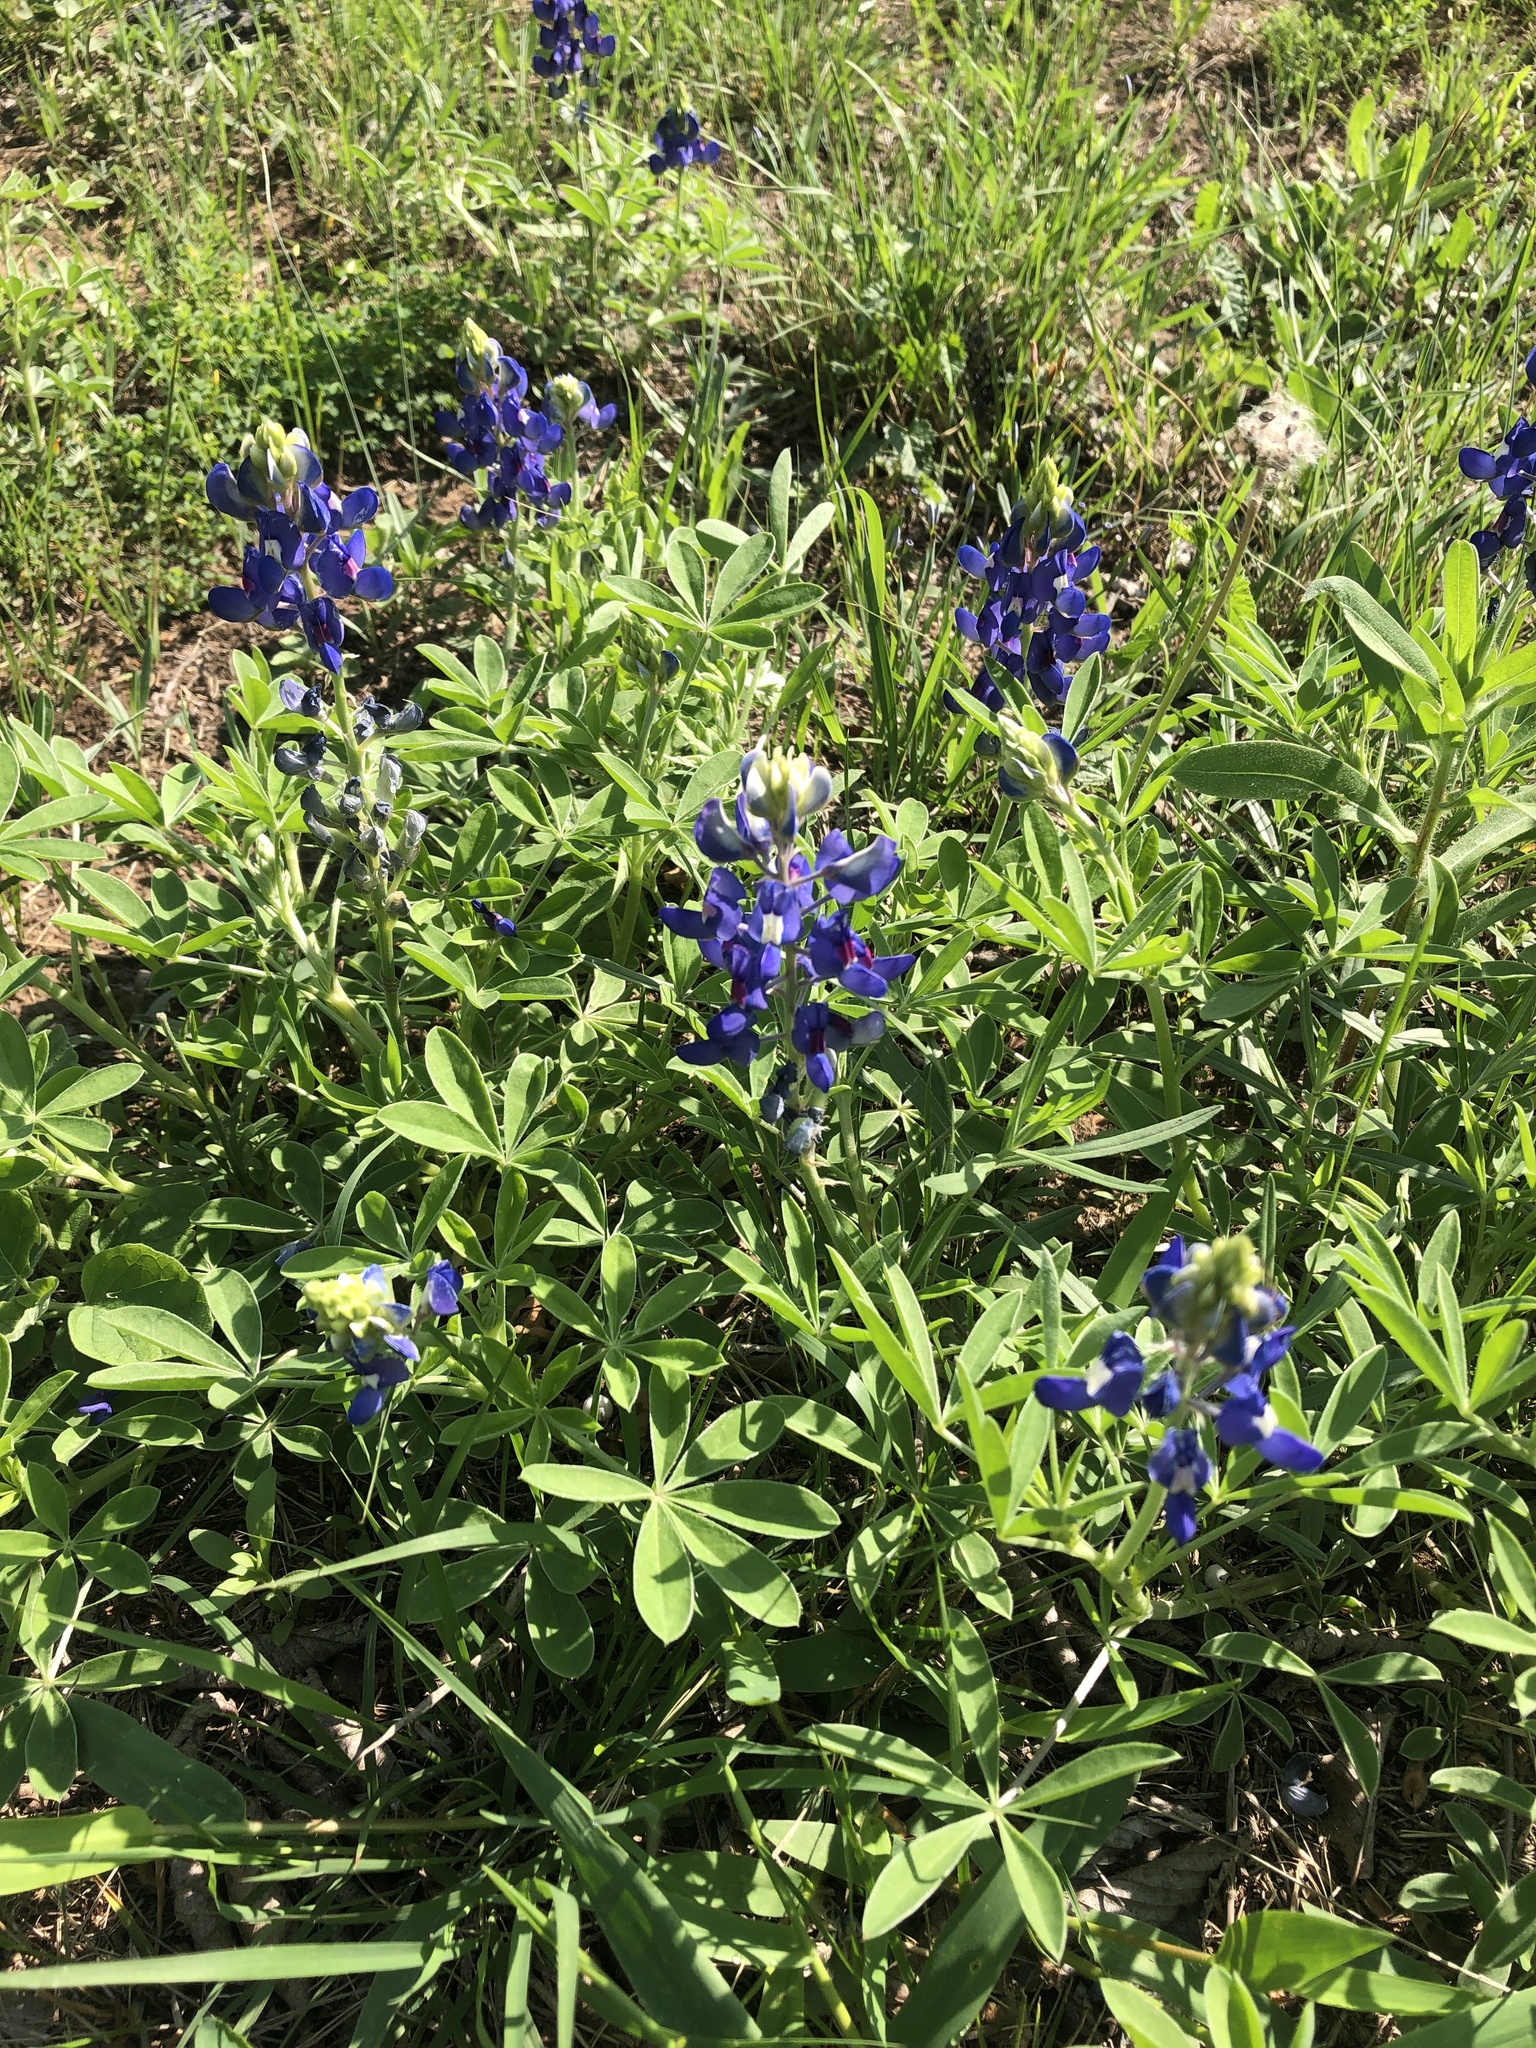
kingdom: Plantae
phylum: Tracheophyta
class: Magnoliopsida
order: Fabales
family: Fabaceae
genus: Lupinus
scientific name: Lupinus texensis
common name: Texas bluebonnet
